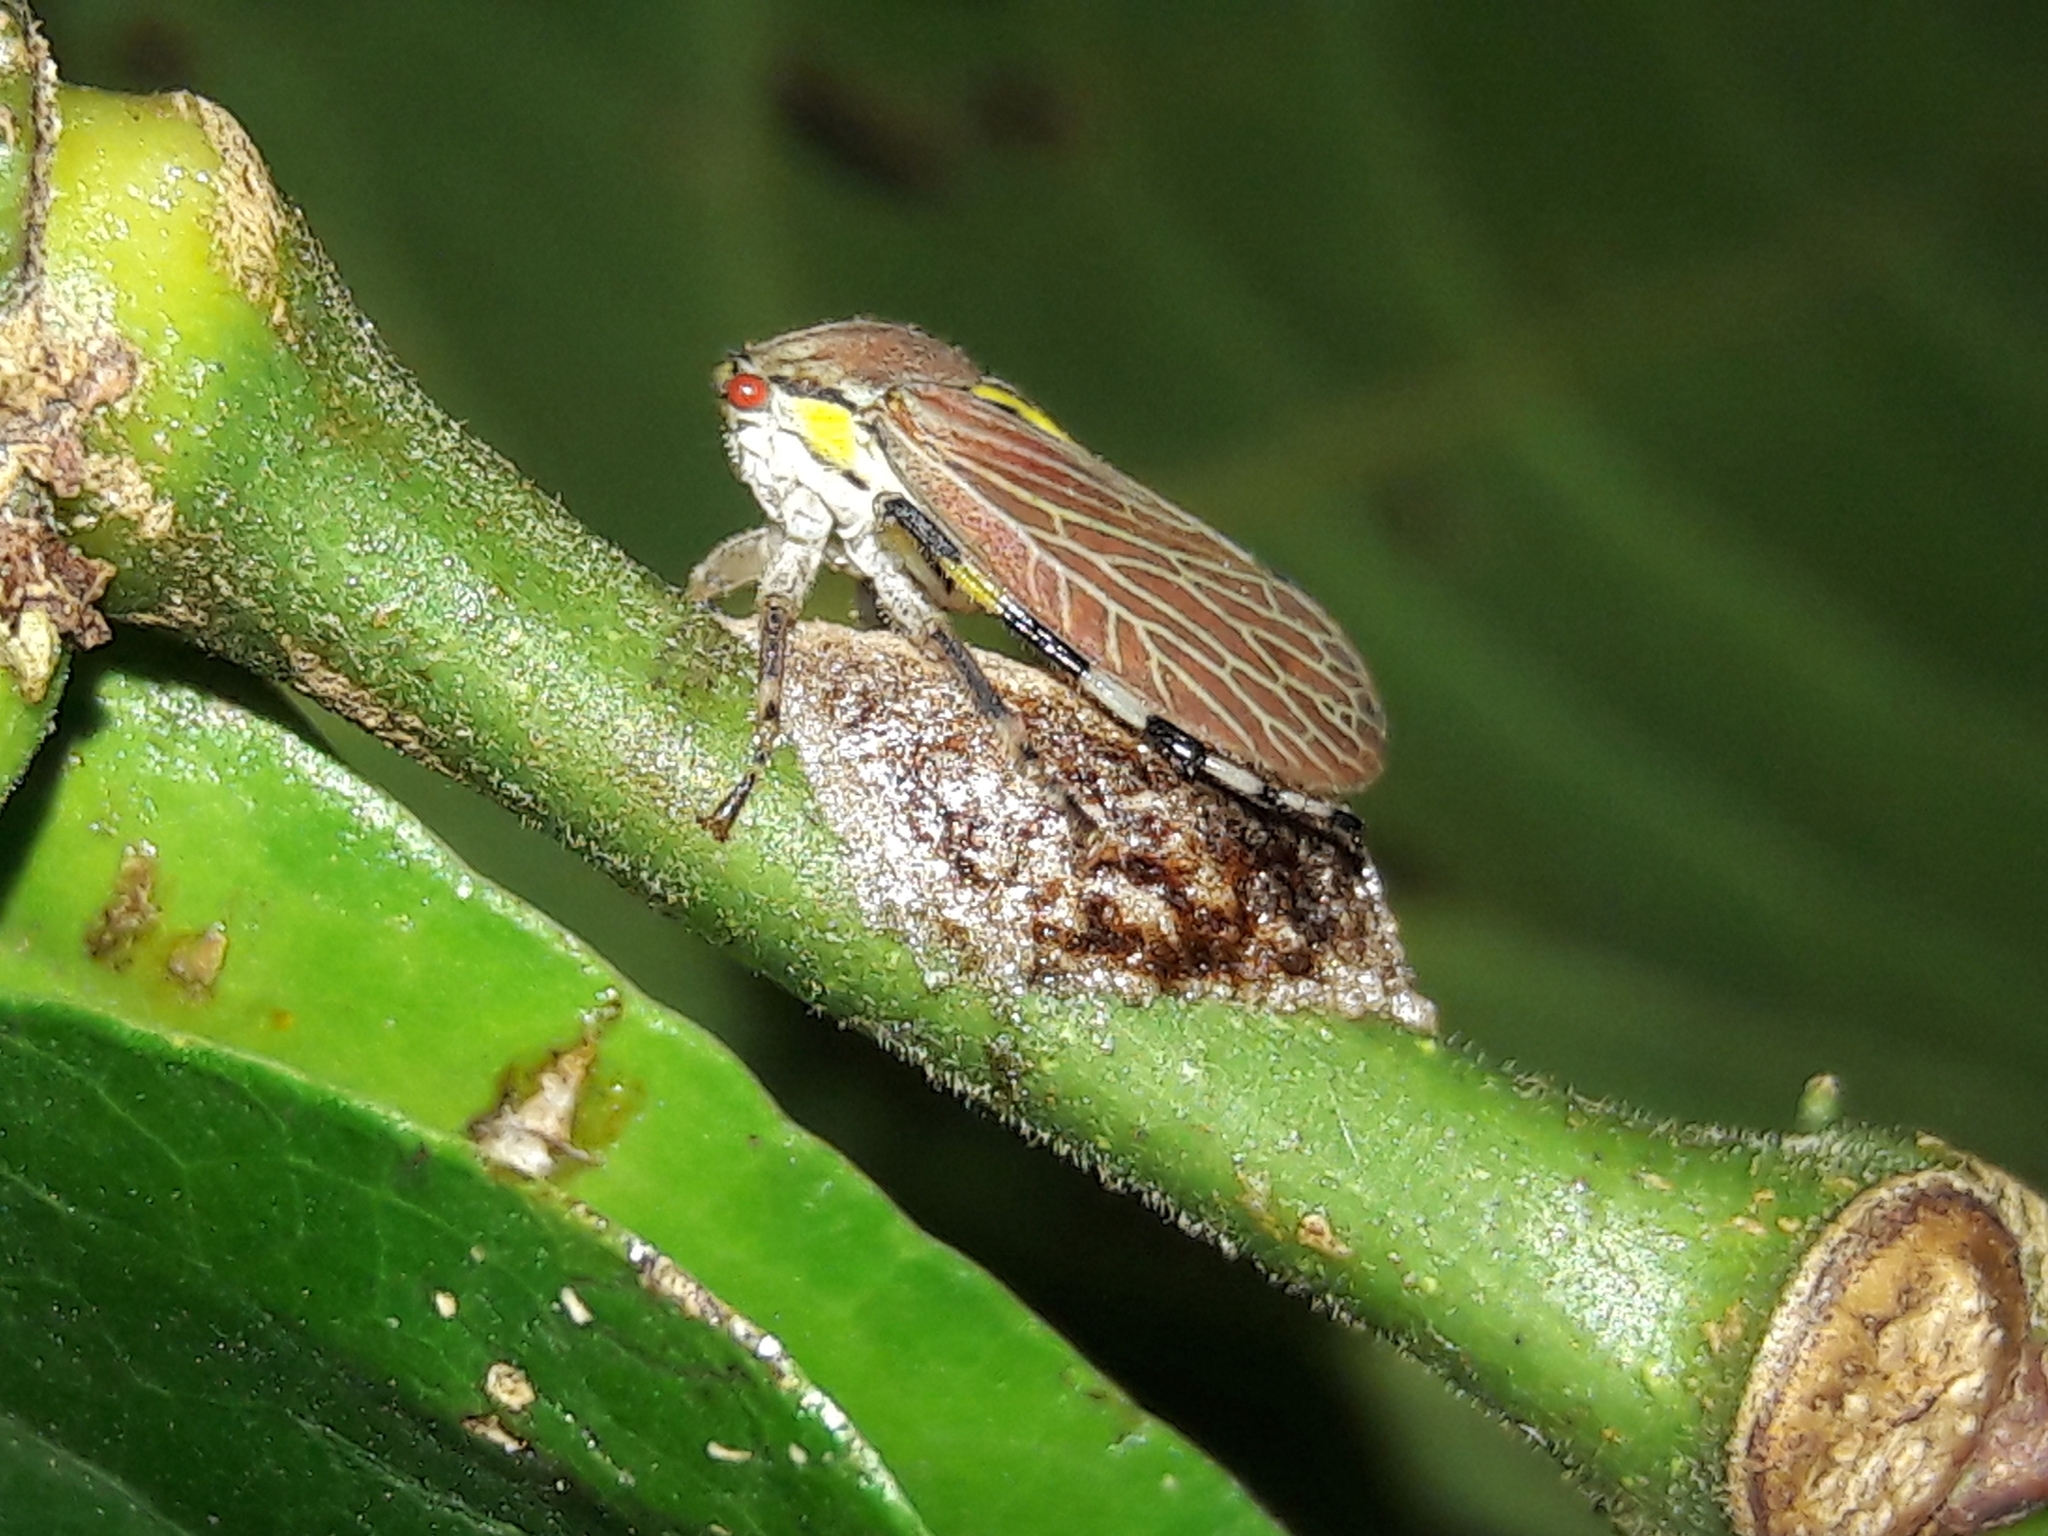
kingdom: Animalia
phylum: Arthropoda
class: Insecta
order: Hemiptera
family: Aetalionidae
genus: Aetalion
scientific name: Aetalion reticulatum
